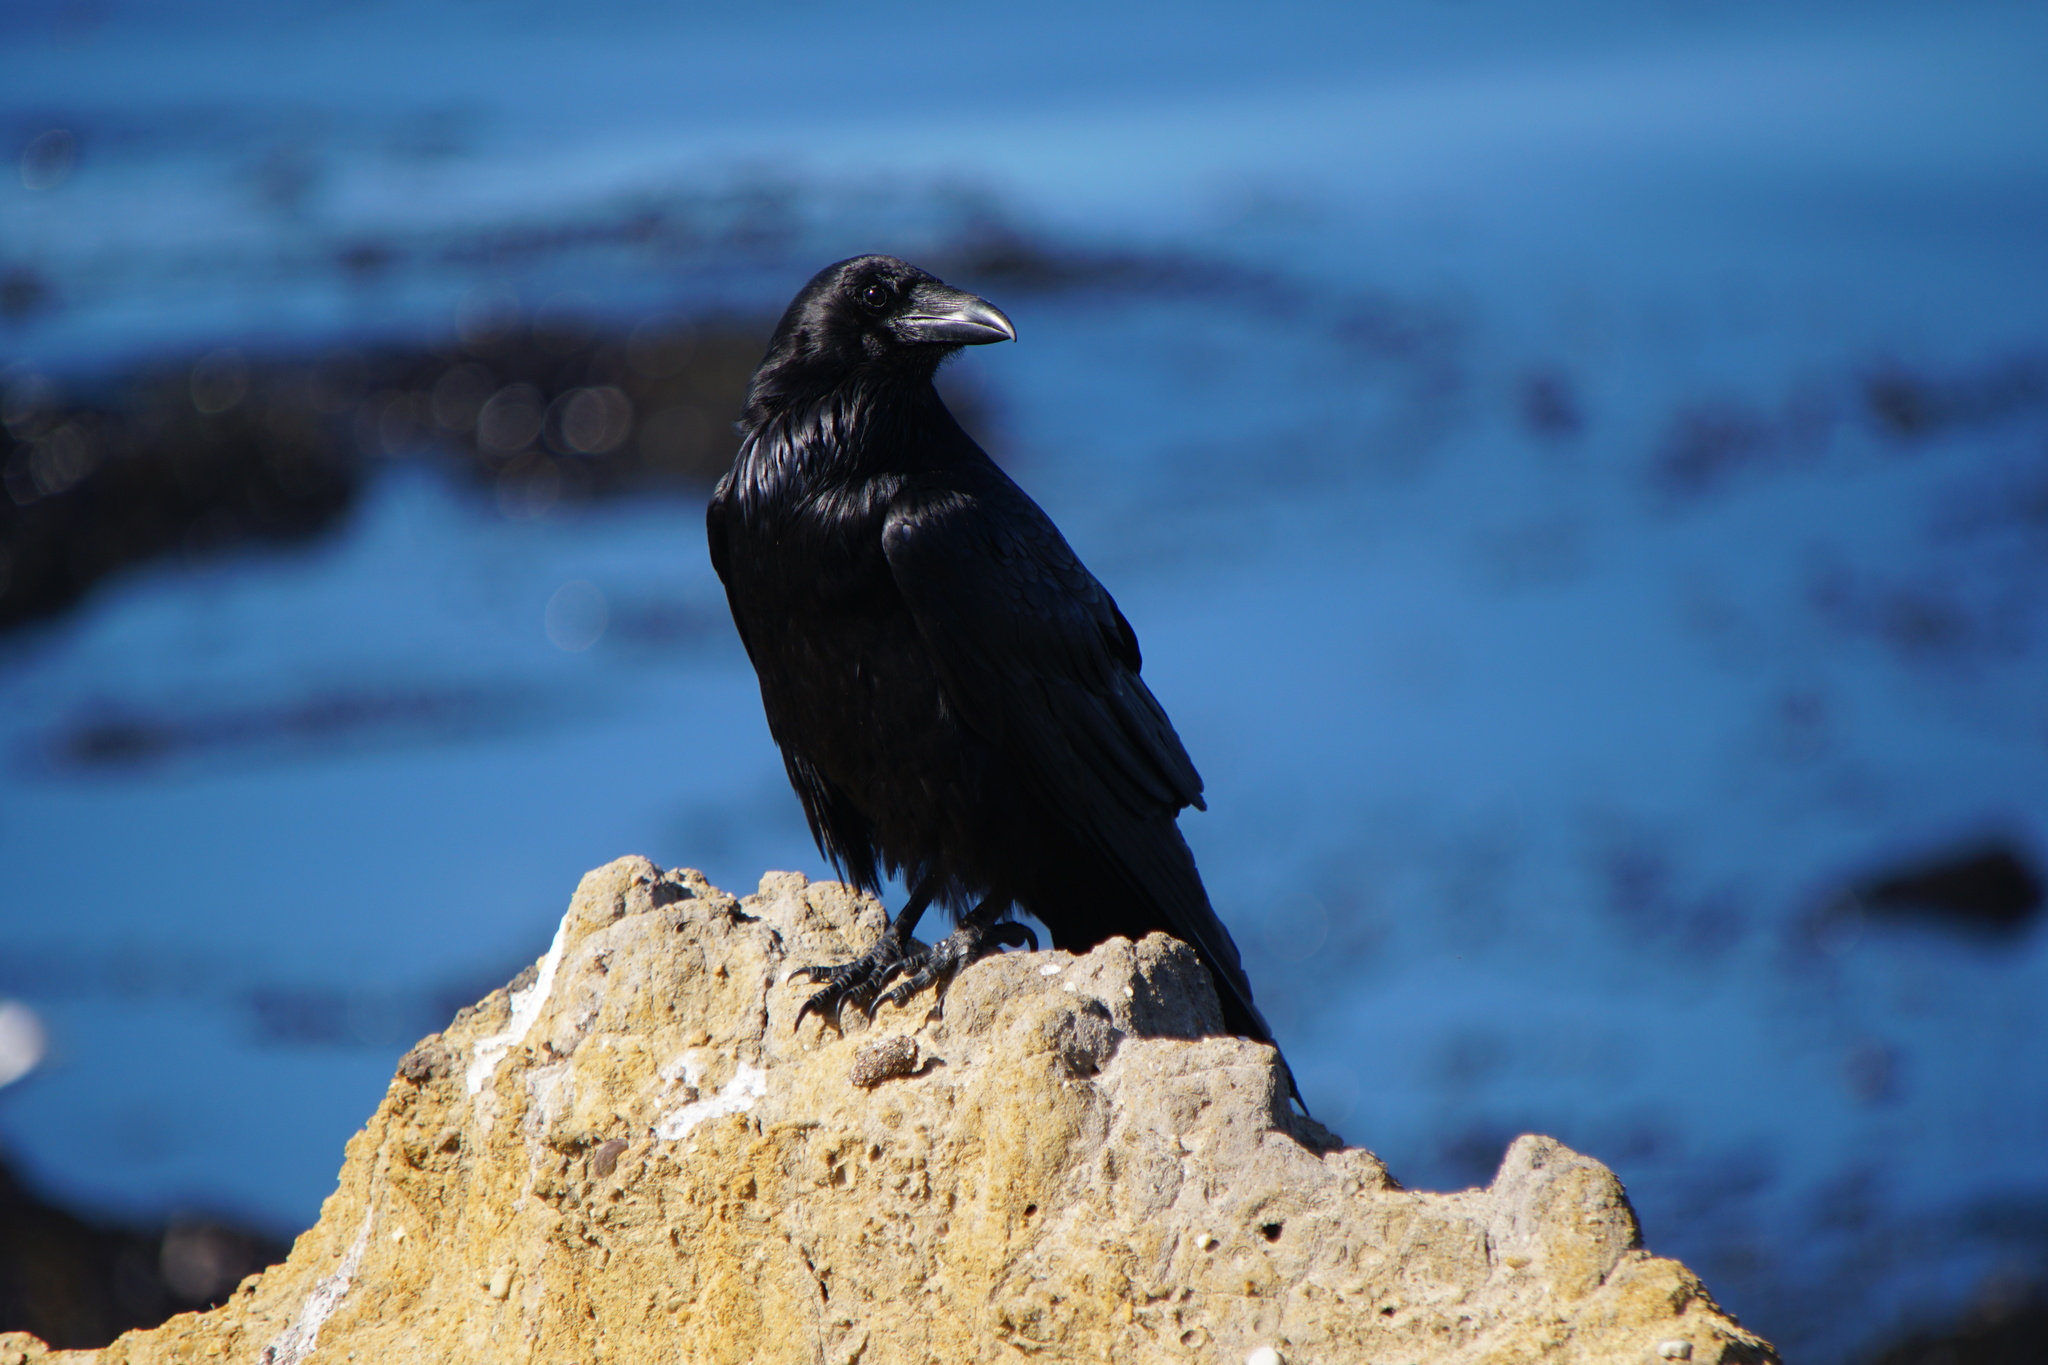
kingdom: Animalia
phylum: Chordata
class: Aves
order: Passeriformes
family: Corvidae
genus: Corvus
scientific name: Corvus corax
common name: Common raven
